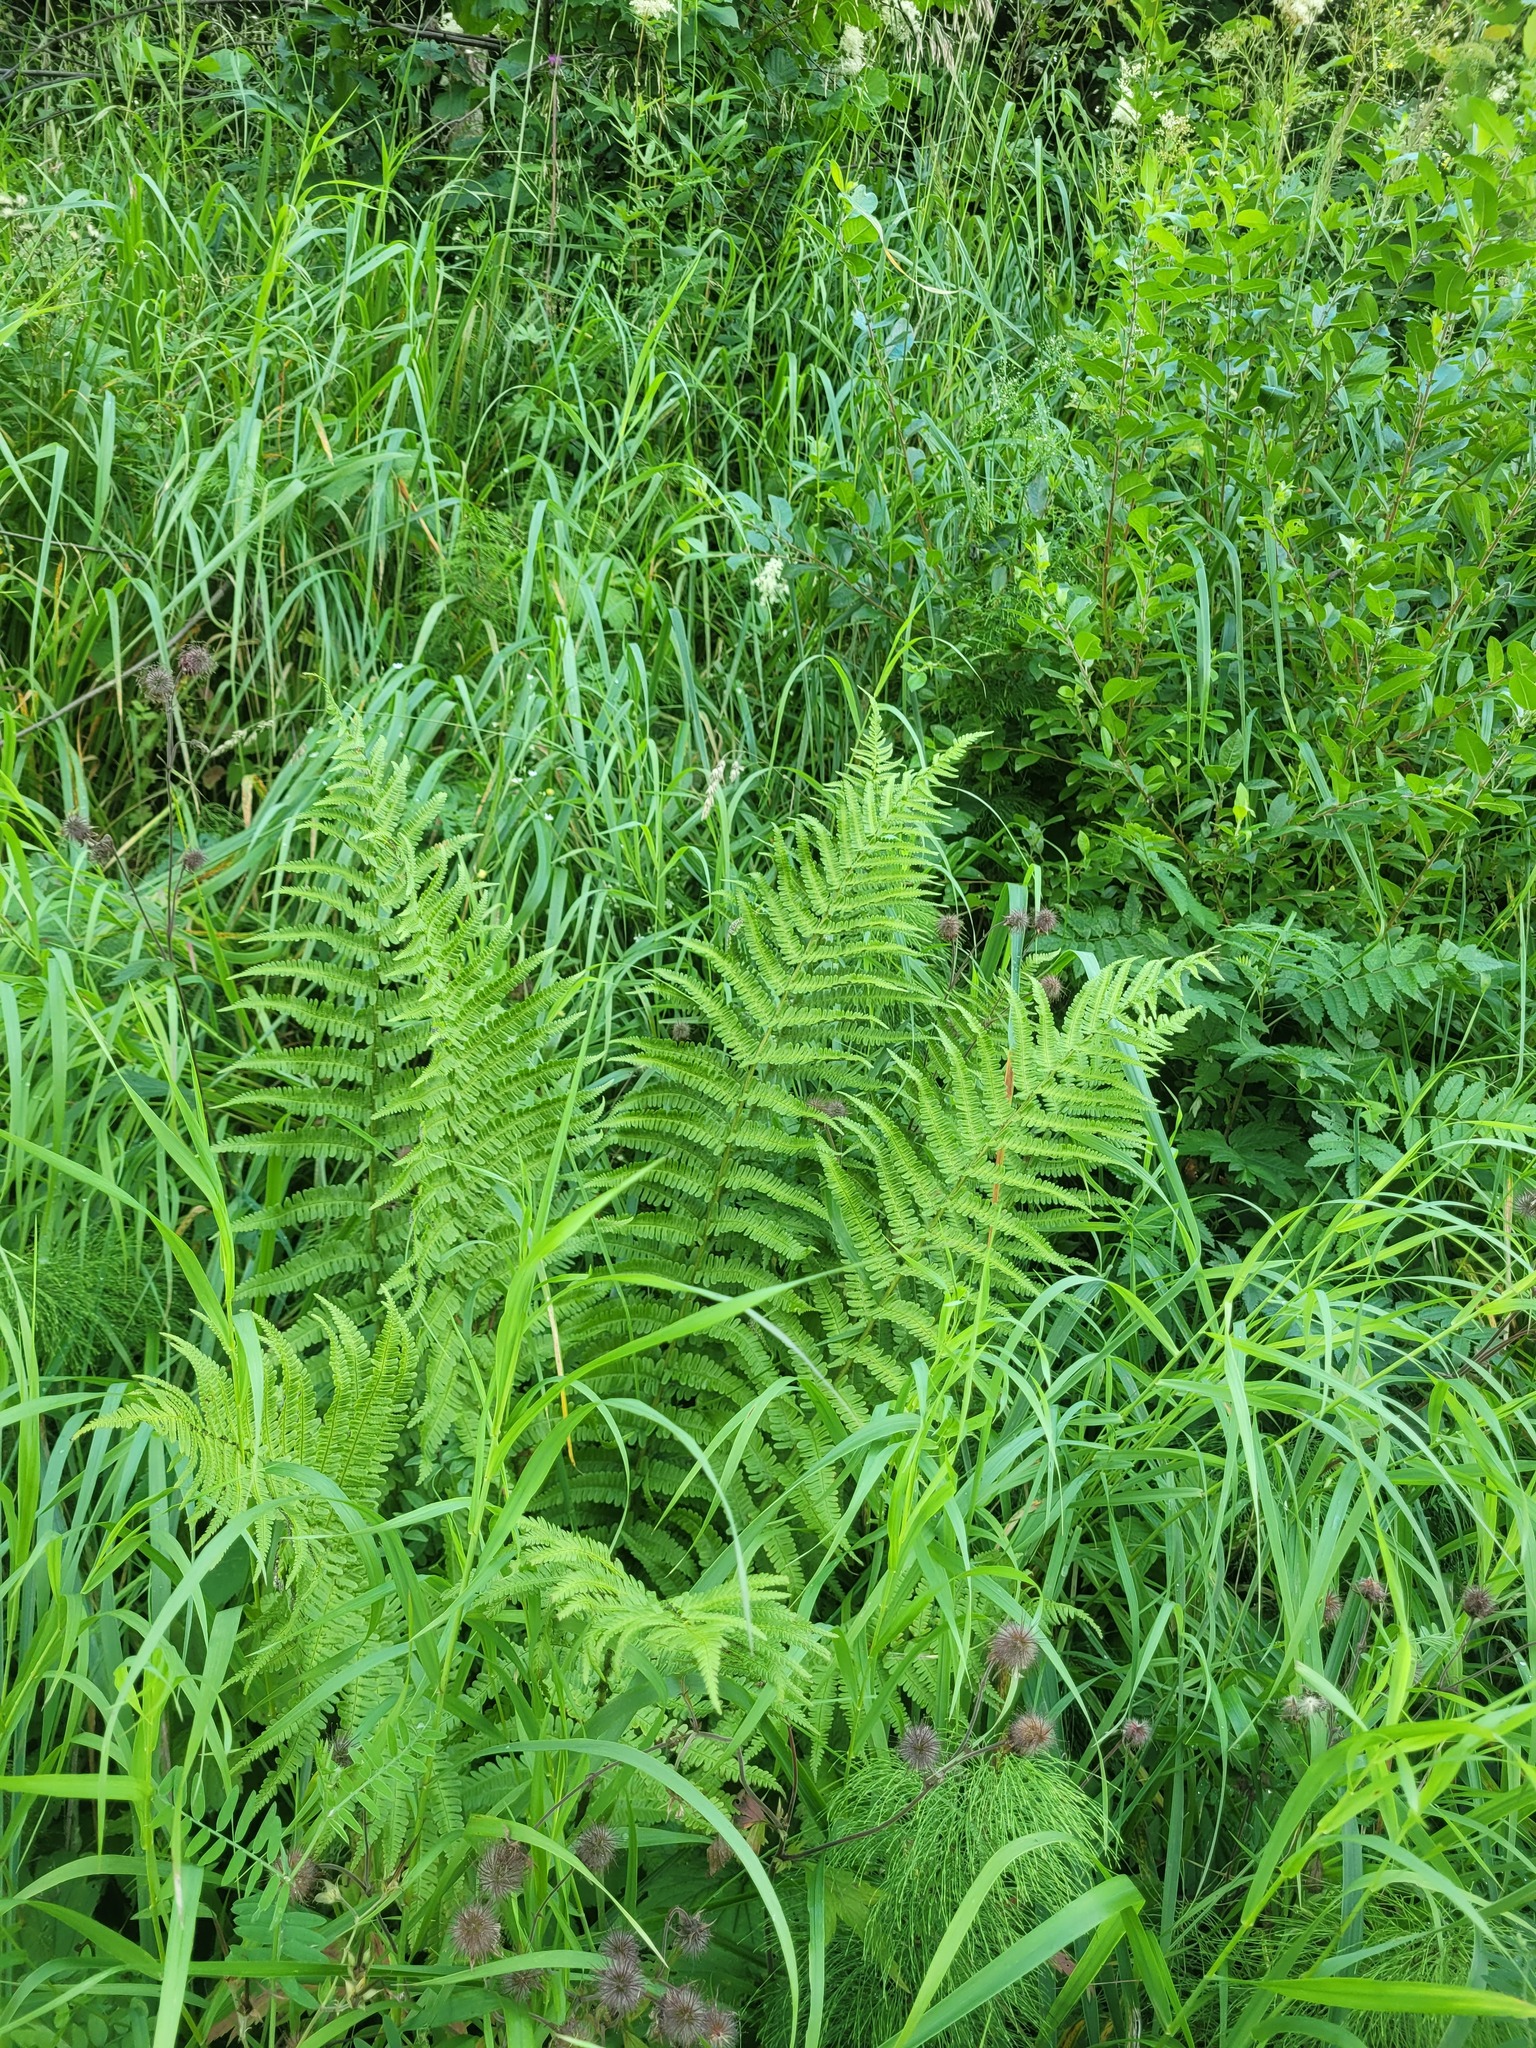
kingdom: Plantae
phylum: Tracheophyta
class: Polypodiopsida
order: Polypodiales
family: Dryopteridaceae
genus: Dryopteris
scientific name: Dryopteris filix-mas
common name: Male fern
